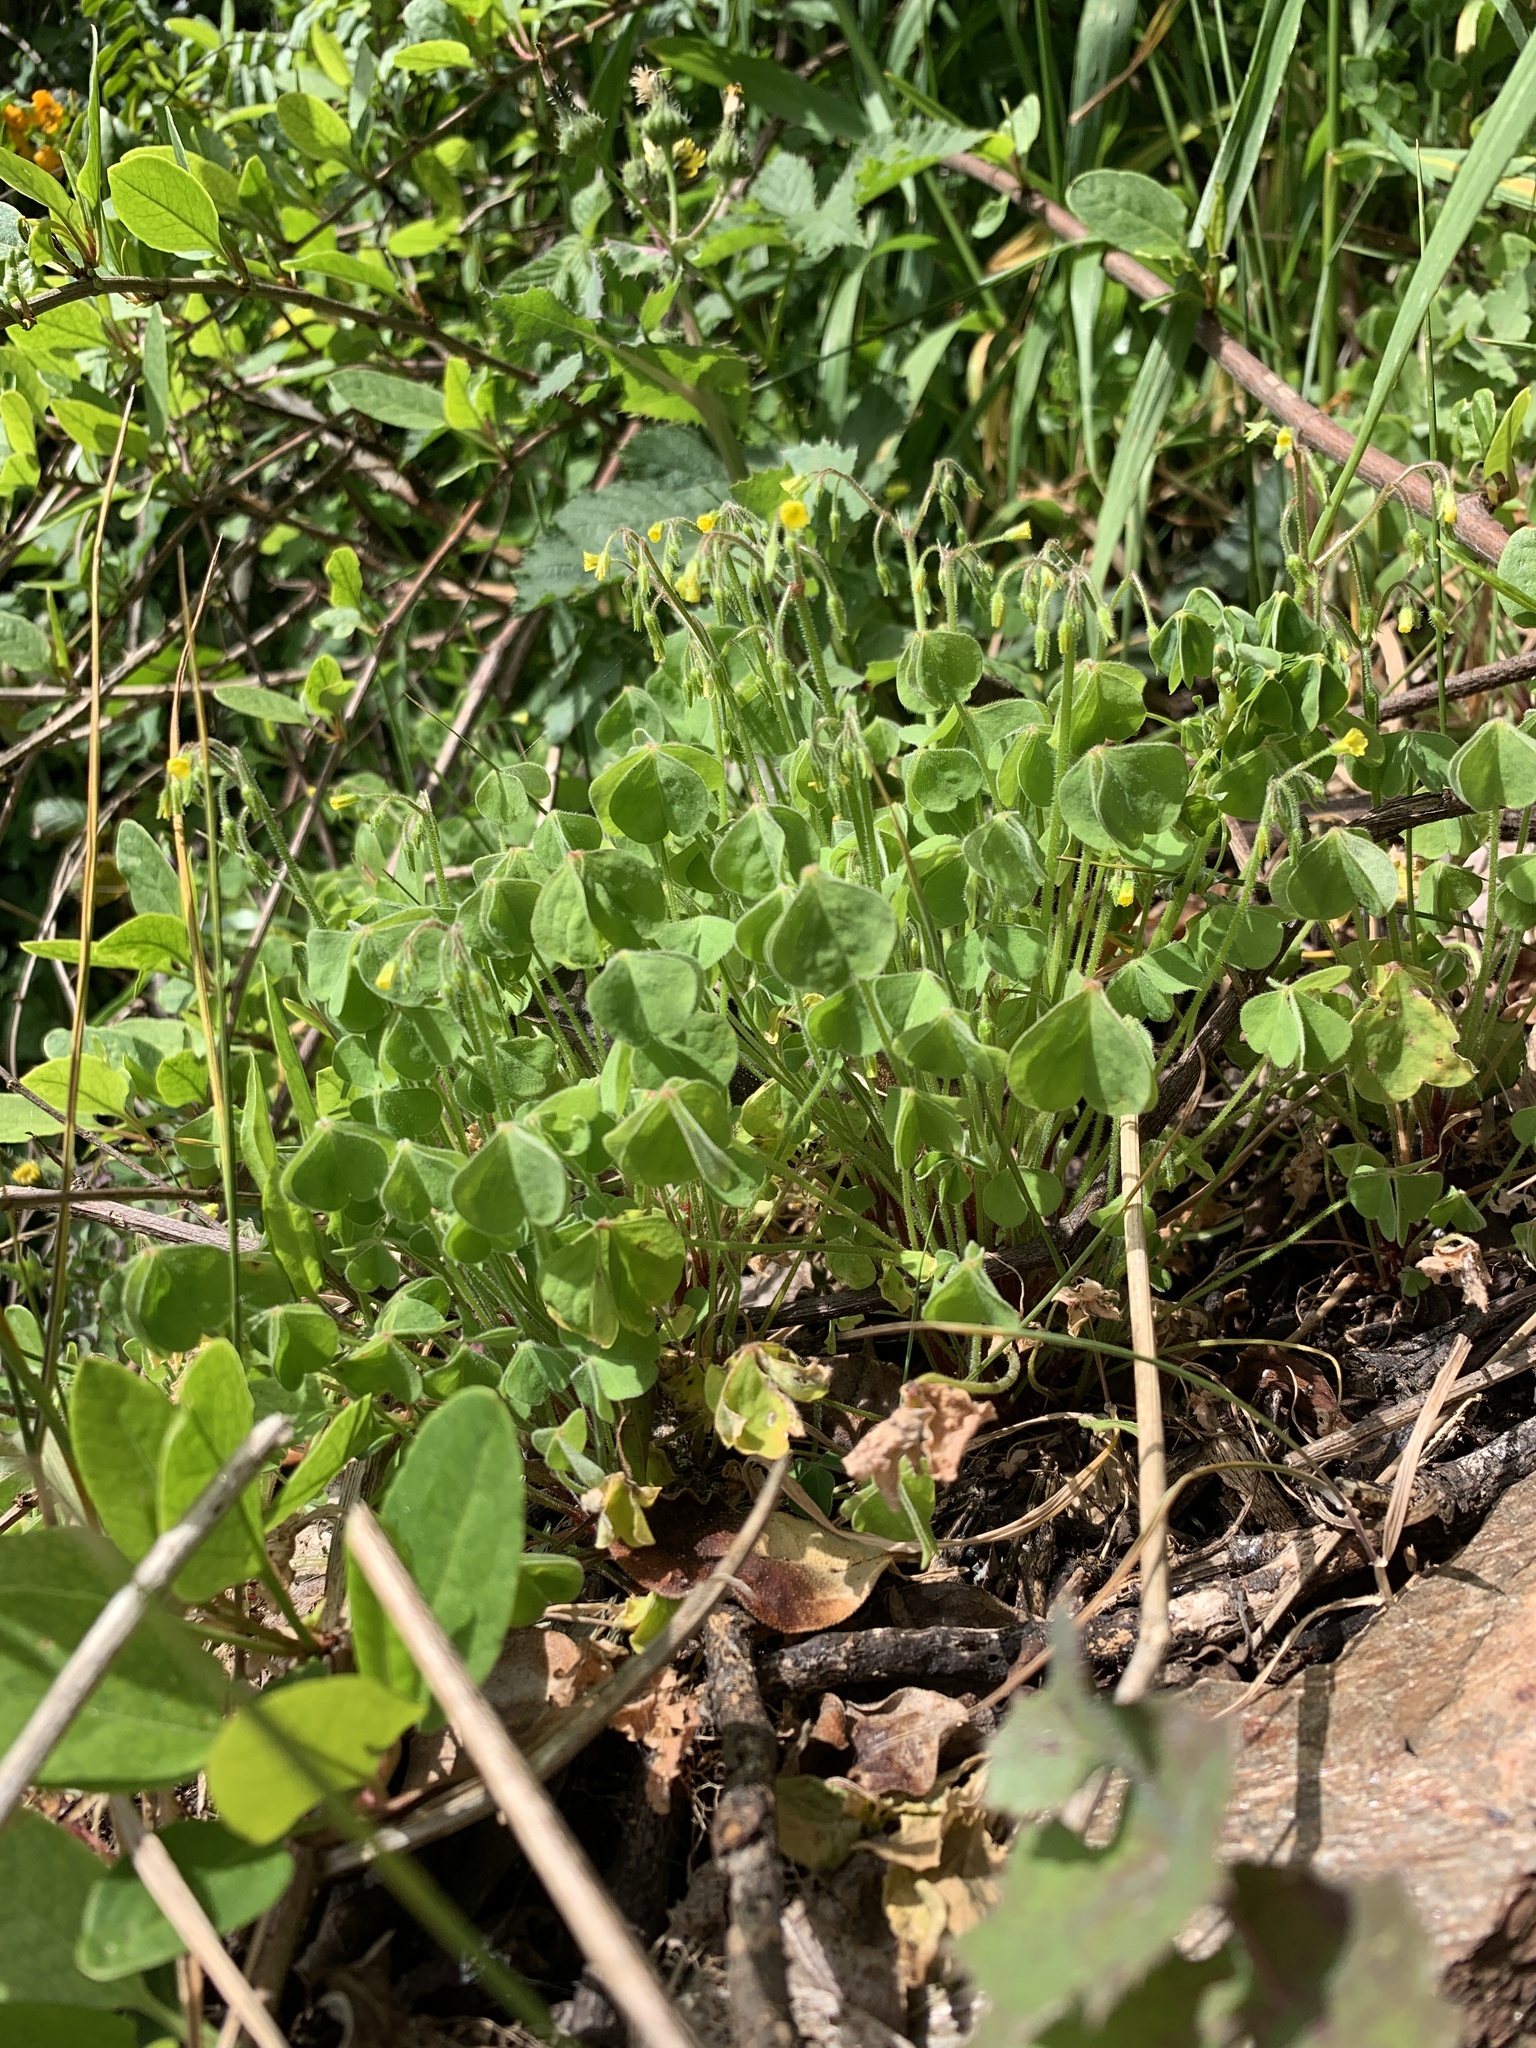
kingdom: Plantae
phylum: Tracheophyta
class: Magnoliopsida
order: Oxalidales
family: Oxalidaceae
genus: Oxalis
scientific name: Oxalis laxa
